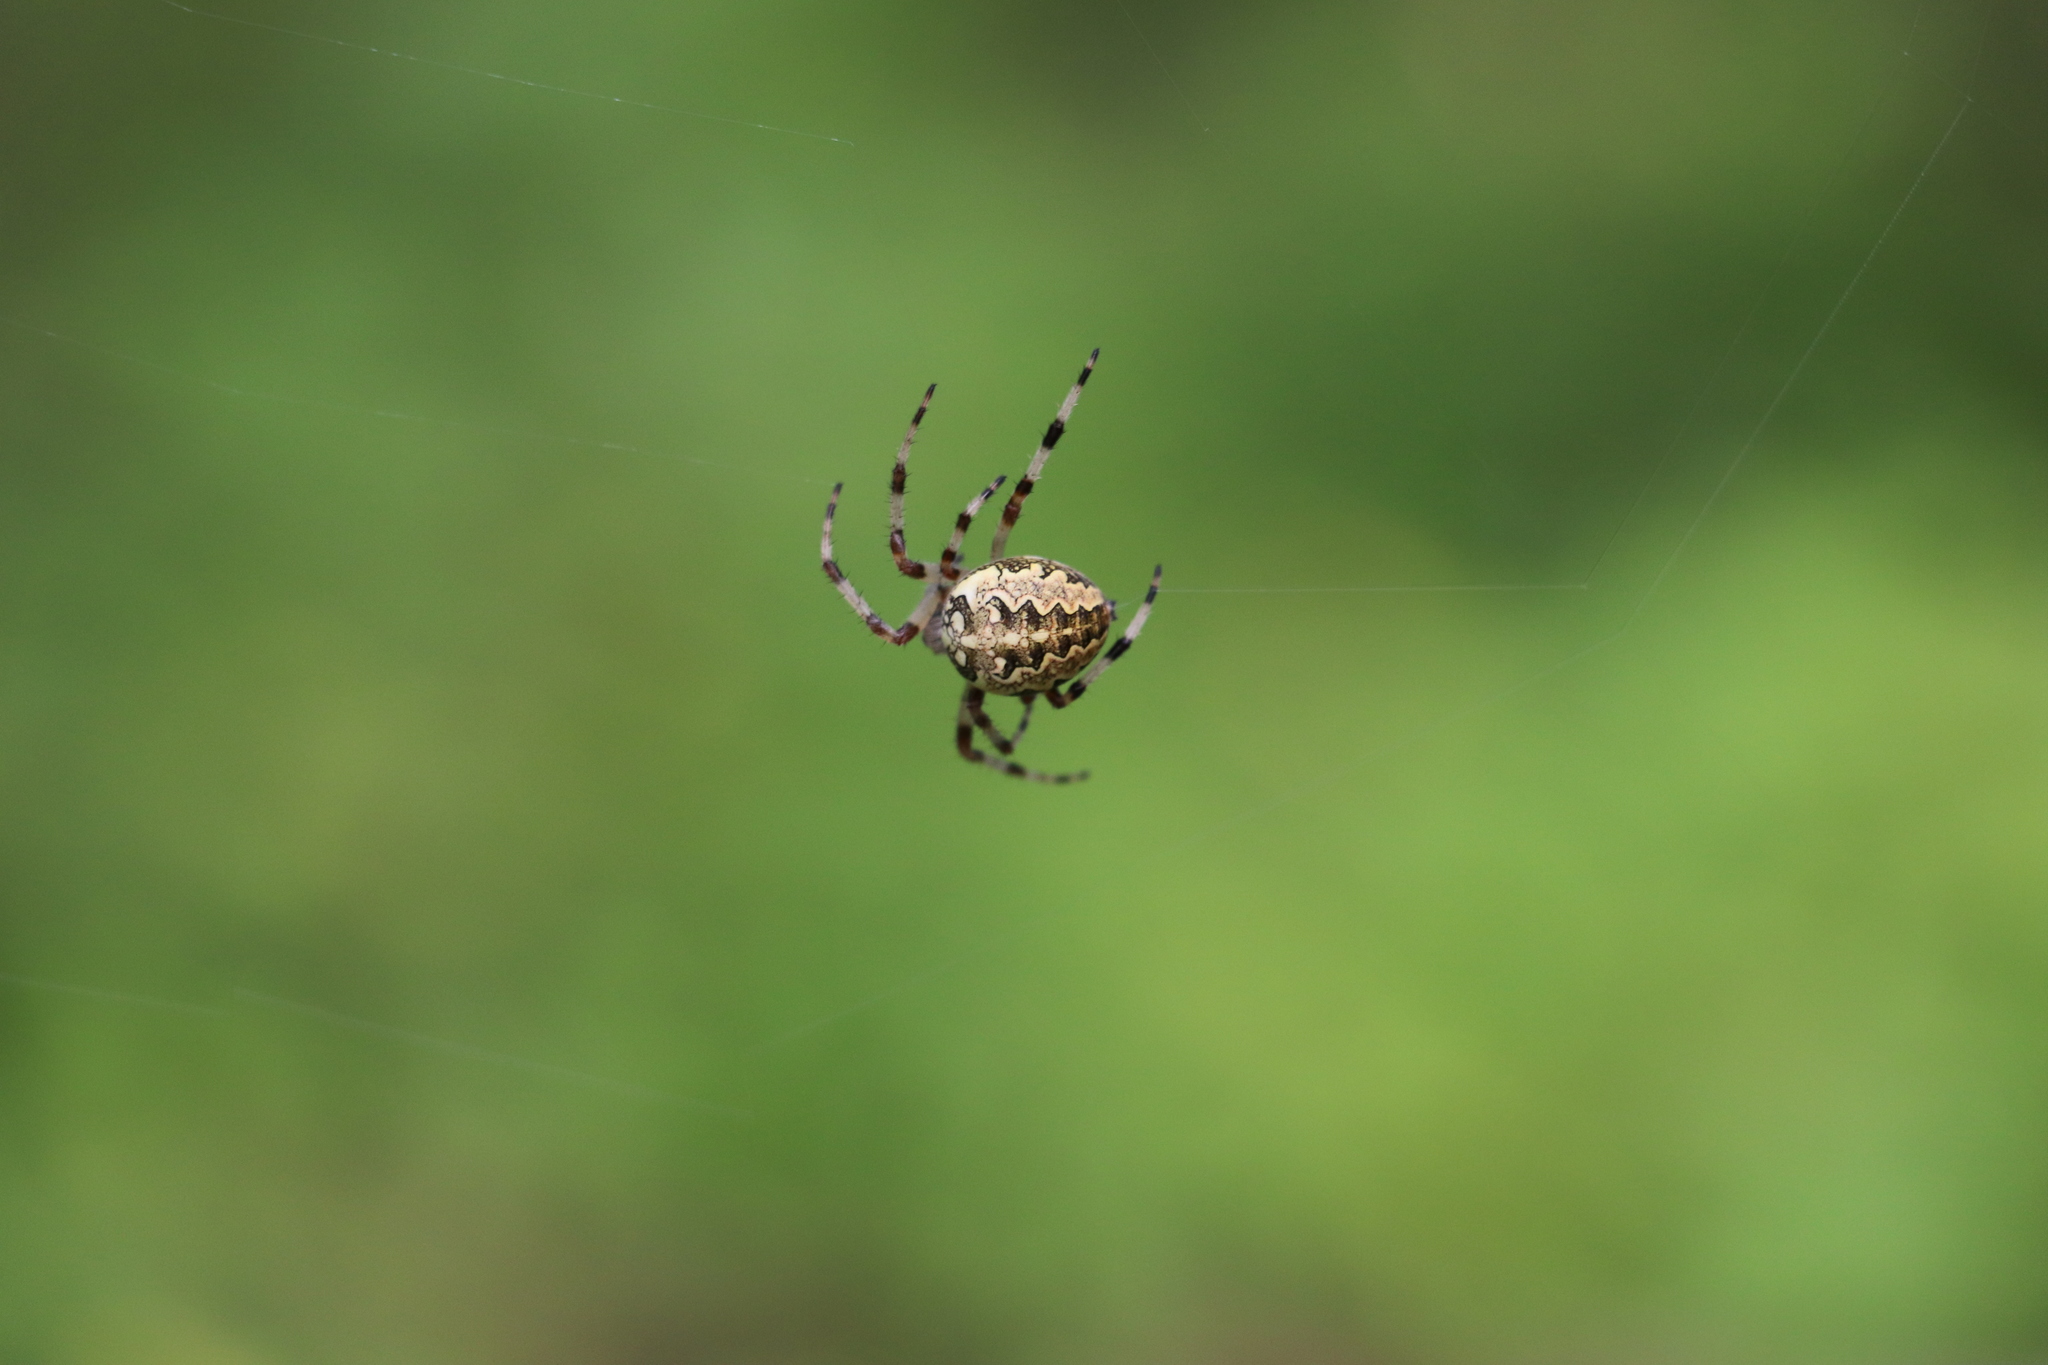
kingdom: Animalia
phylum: Arthropoda
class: Arachnida
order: Araneae
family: Araneidae
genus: Araneus
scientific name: Araneus diadematus
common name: Cross orbweaver
